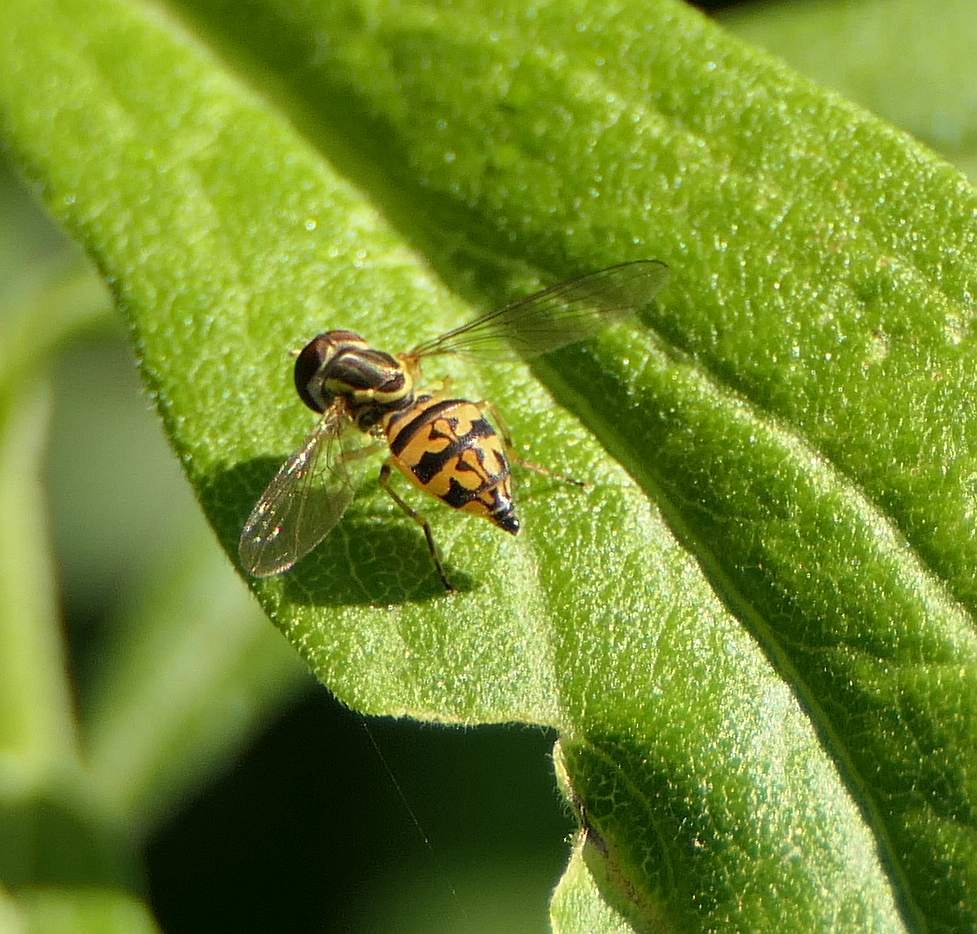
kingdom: Animalia
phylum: Arthropoda
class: Insecta
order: Diptera
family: Syrphidae
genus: Toxomerus
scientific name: Toxomerus geminatus
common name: Eastern calligrapher
